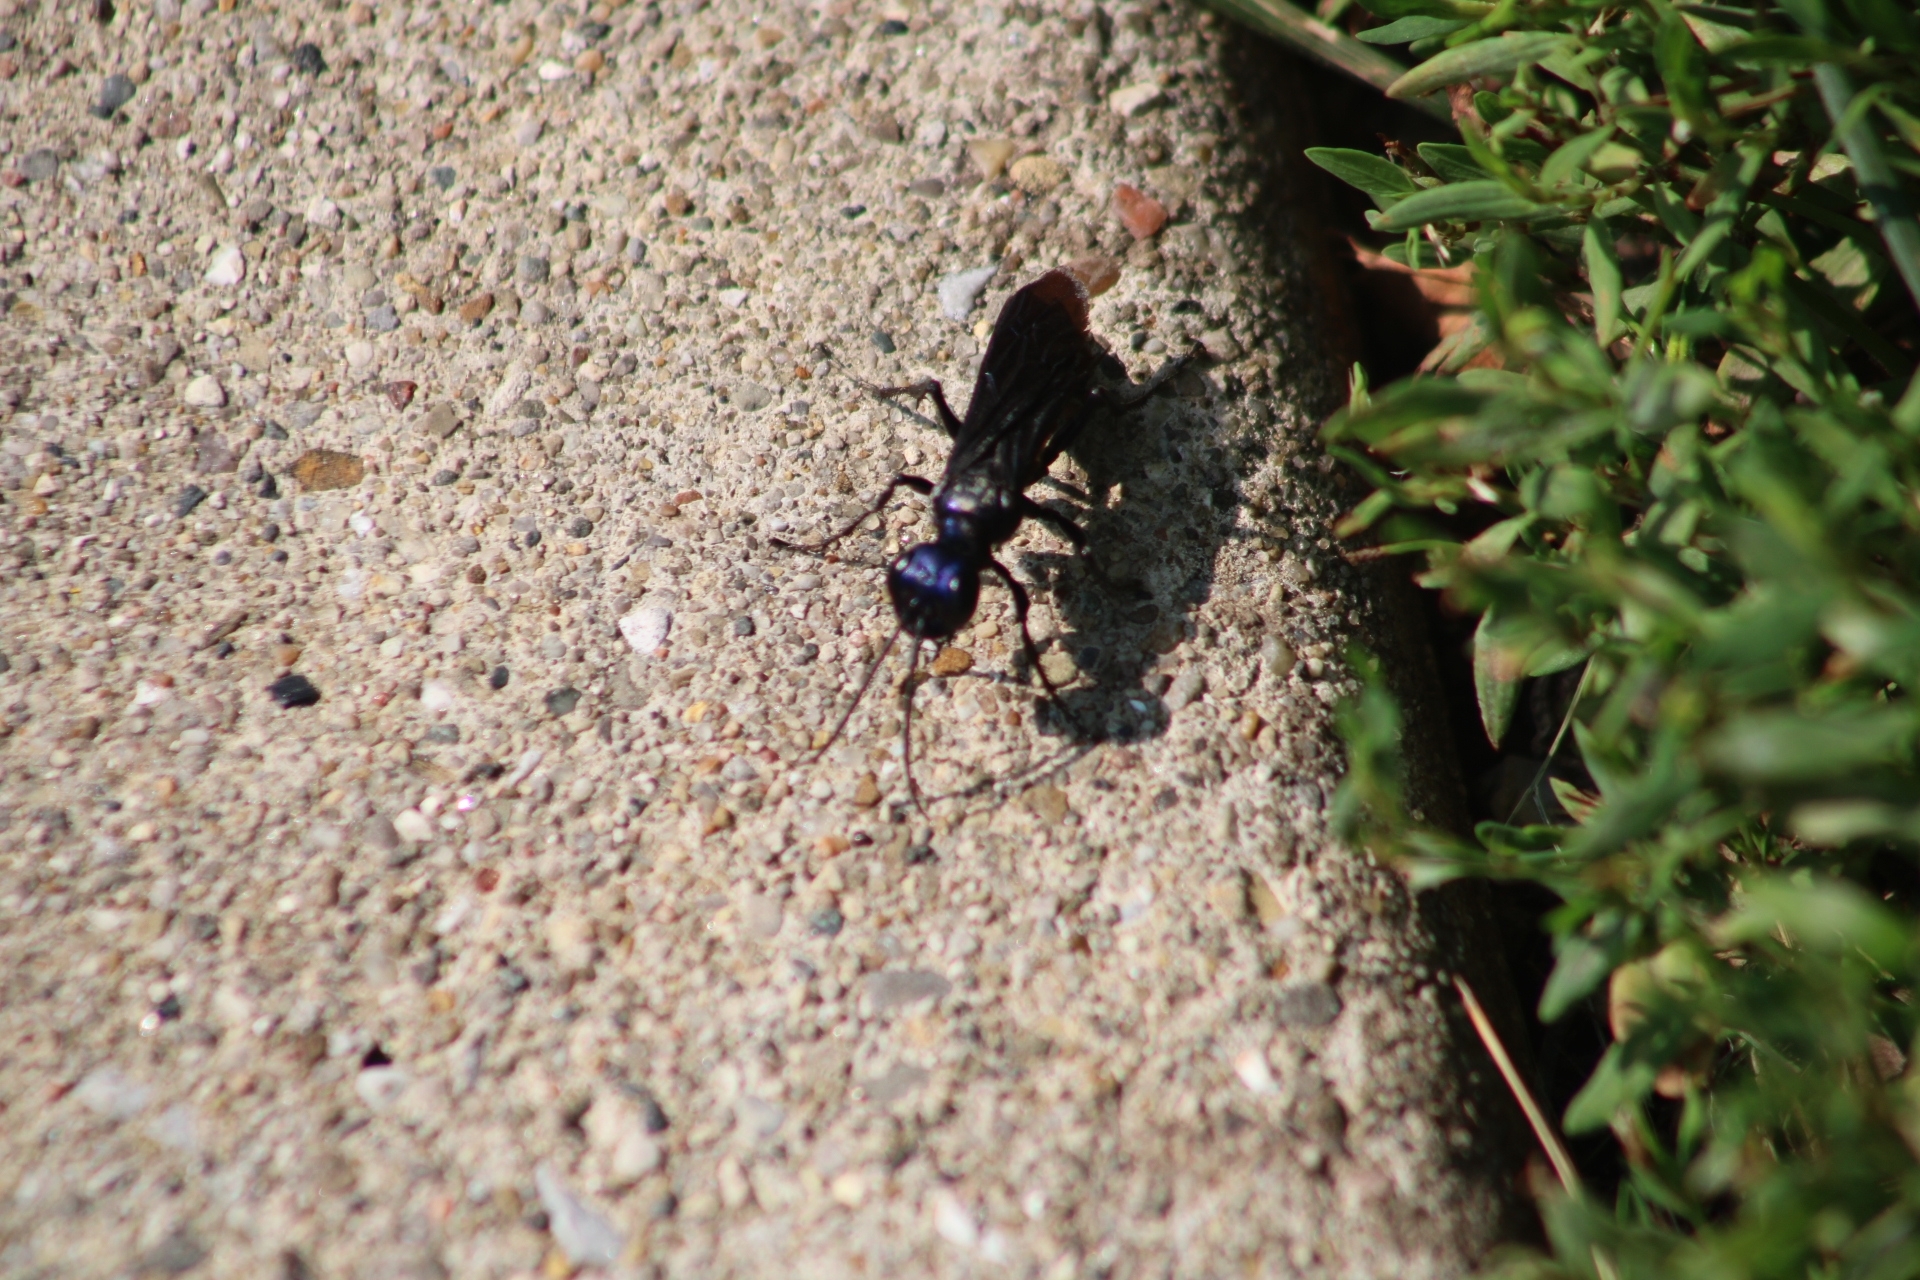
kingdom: Animalia
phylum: Arthropoda
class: Insecta
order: Hymenoptera
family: Sphecidae
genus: Chlorion
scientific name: Chlorion aerarium
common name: Steel-blue cricket hunter
